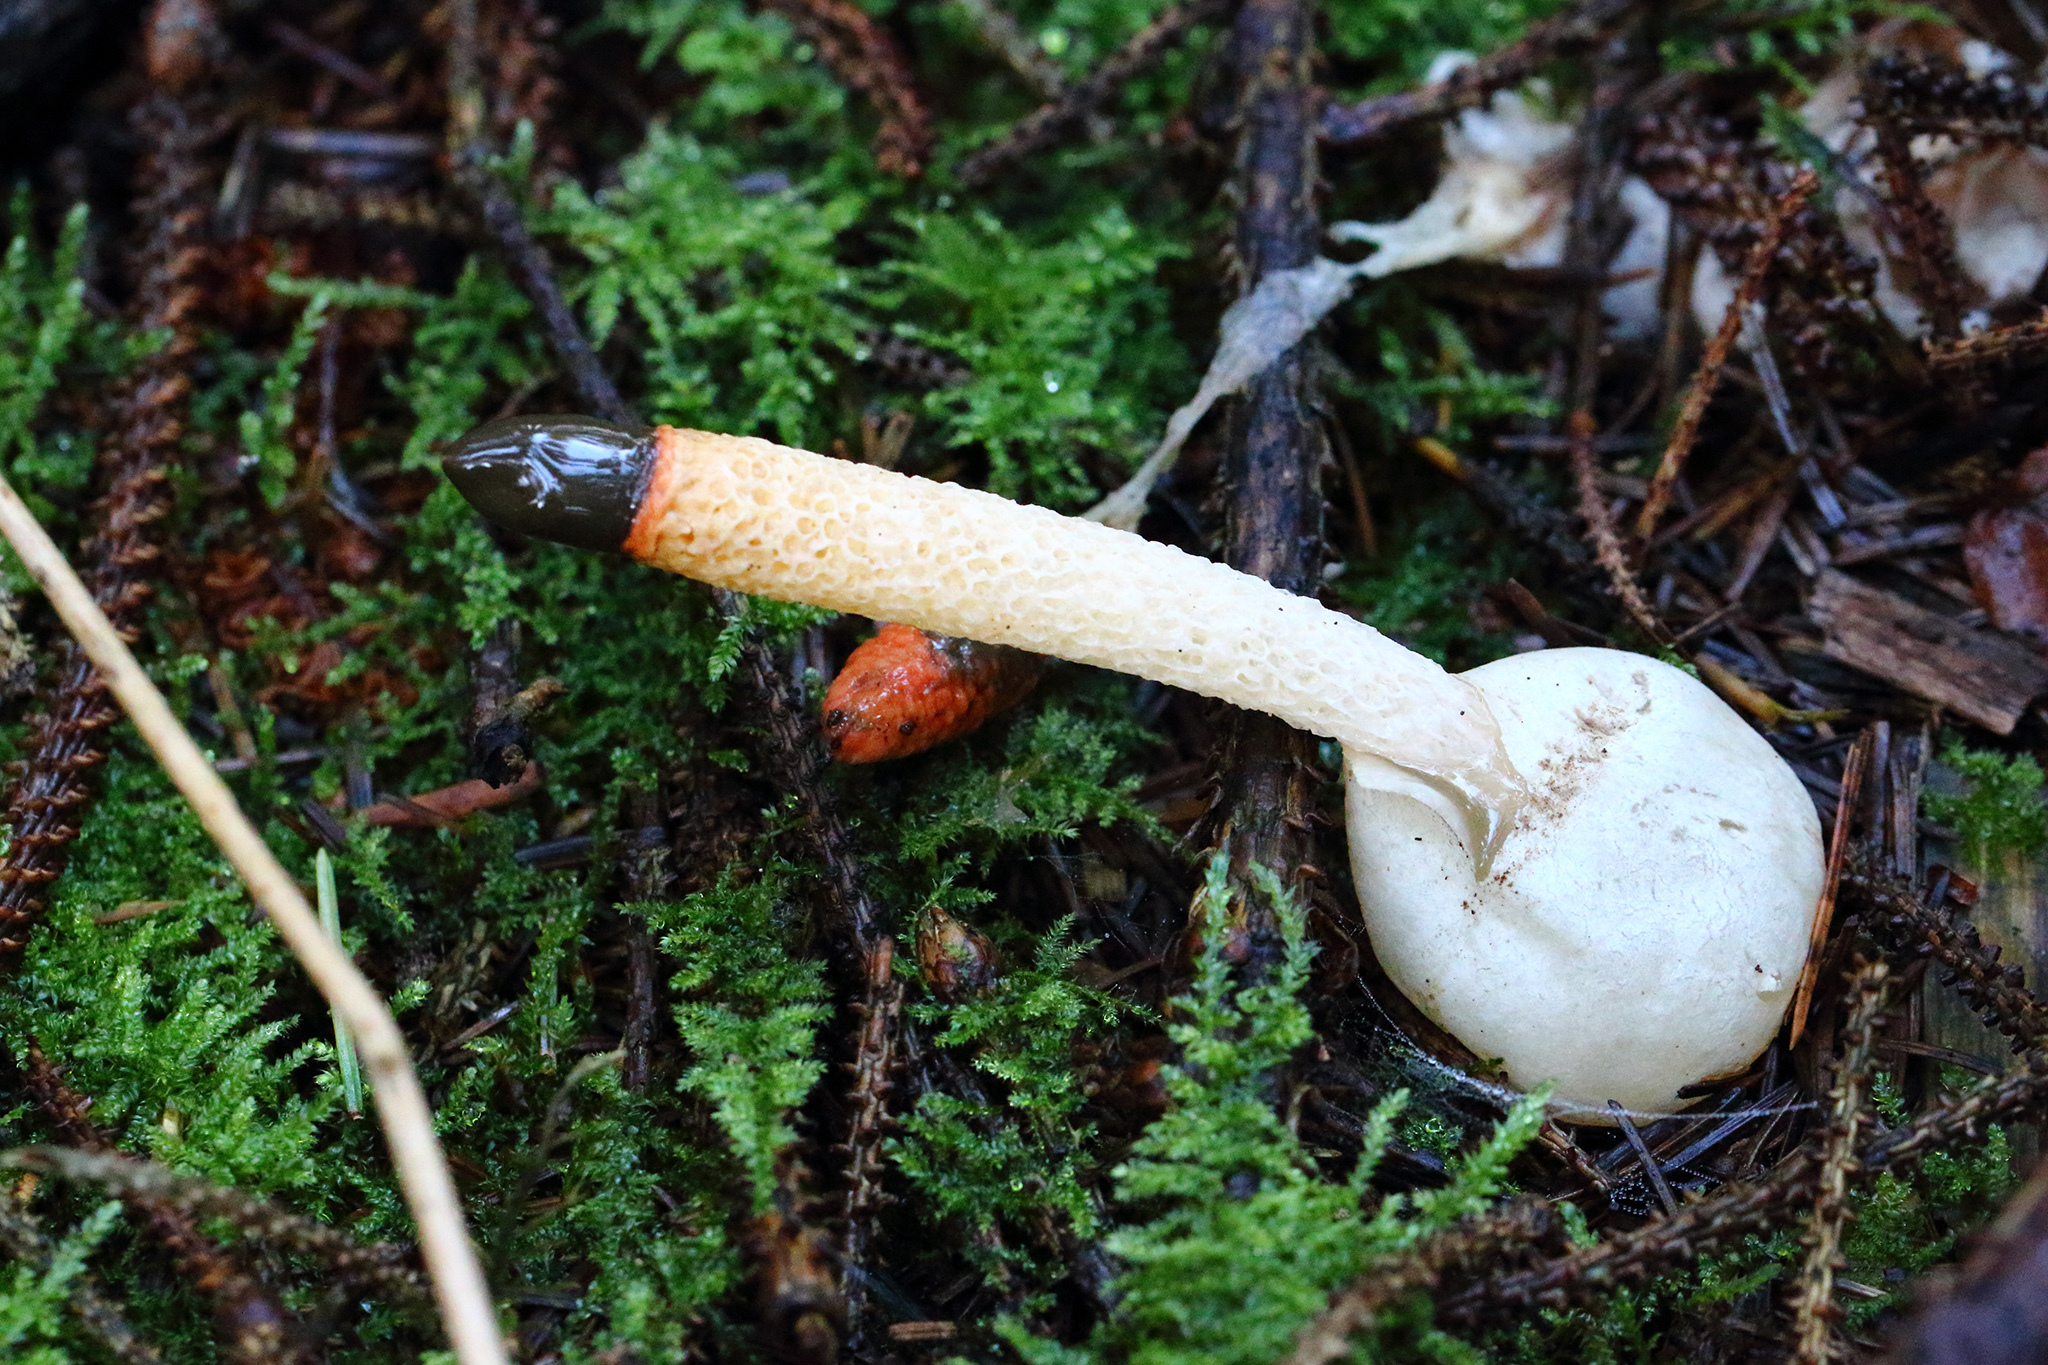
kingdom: Fungi
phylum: Basidiomycota
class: Agaricomycetes
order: Phallales
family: Phallaceae
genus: Mutinus
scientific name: Mutinus caninus
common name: Dog stinkhorn
